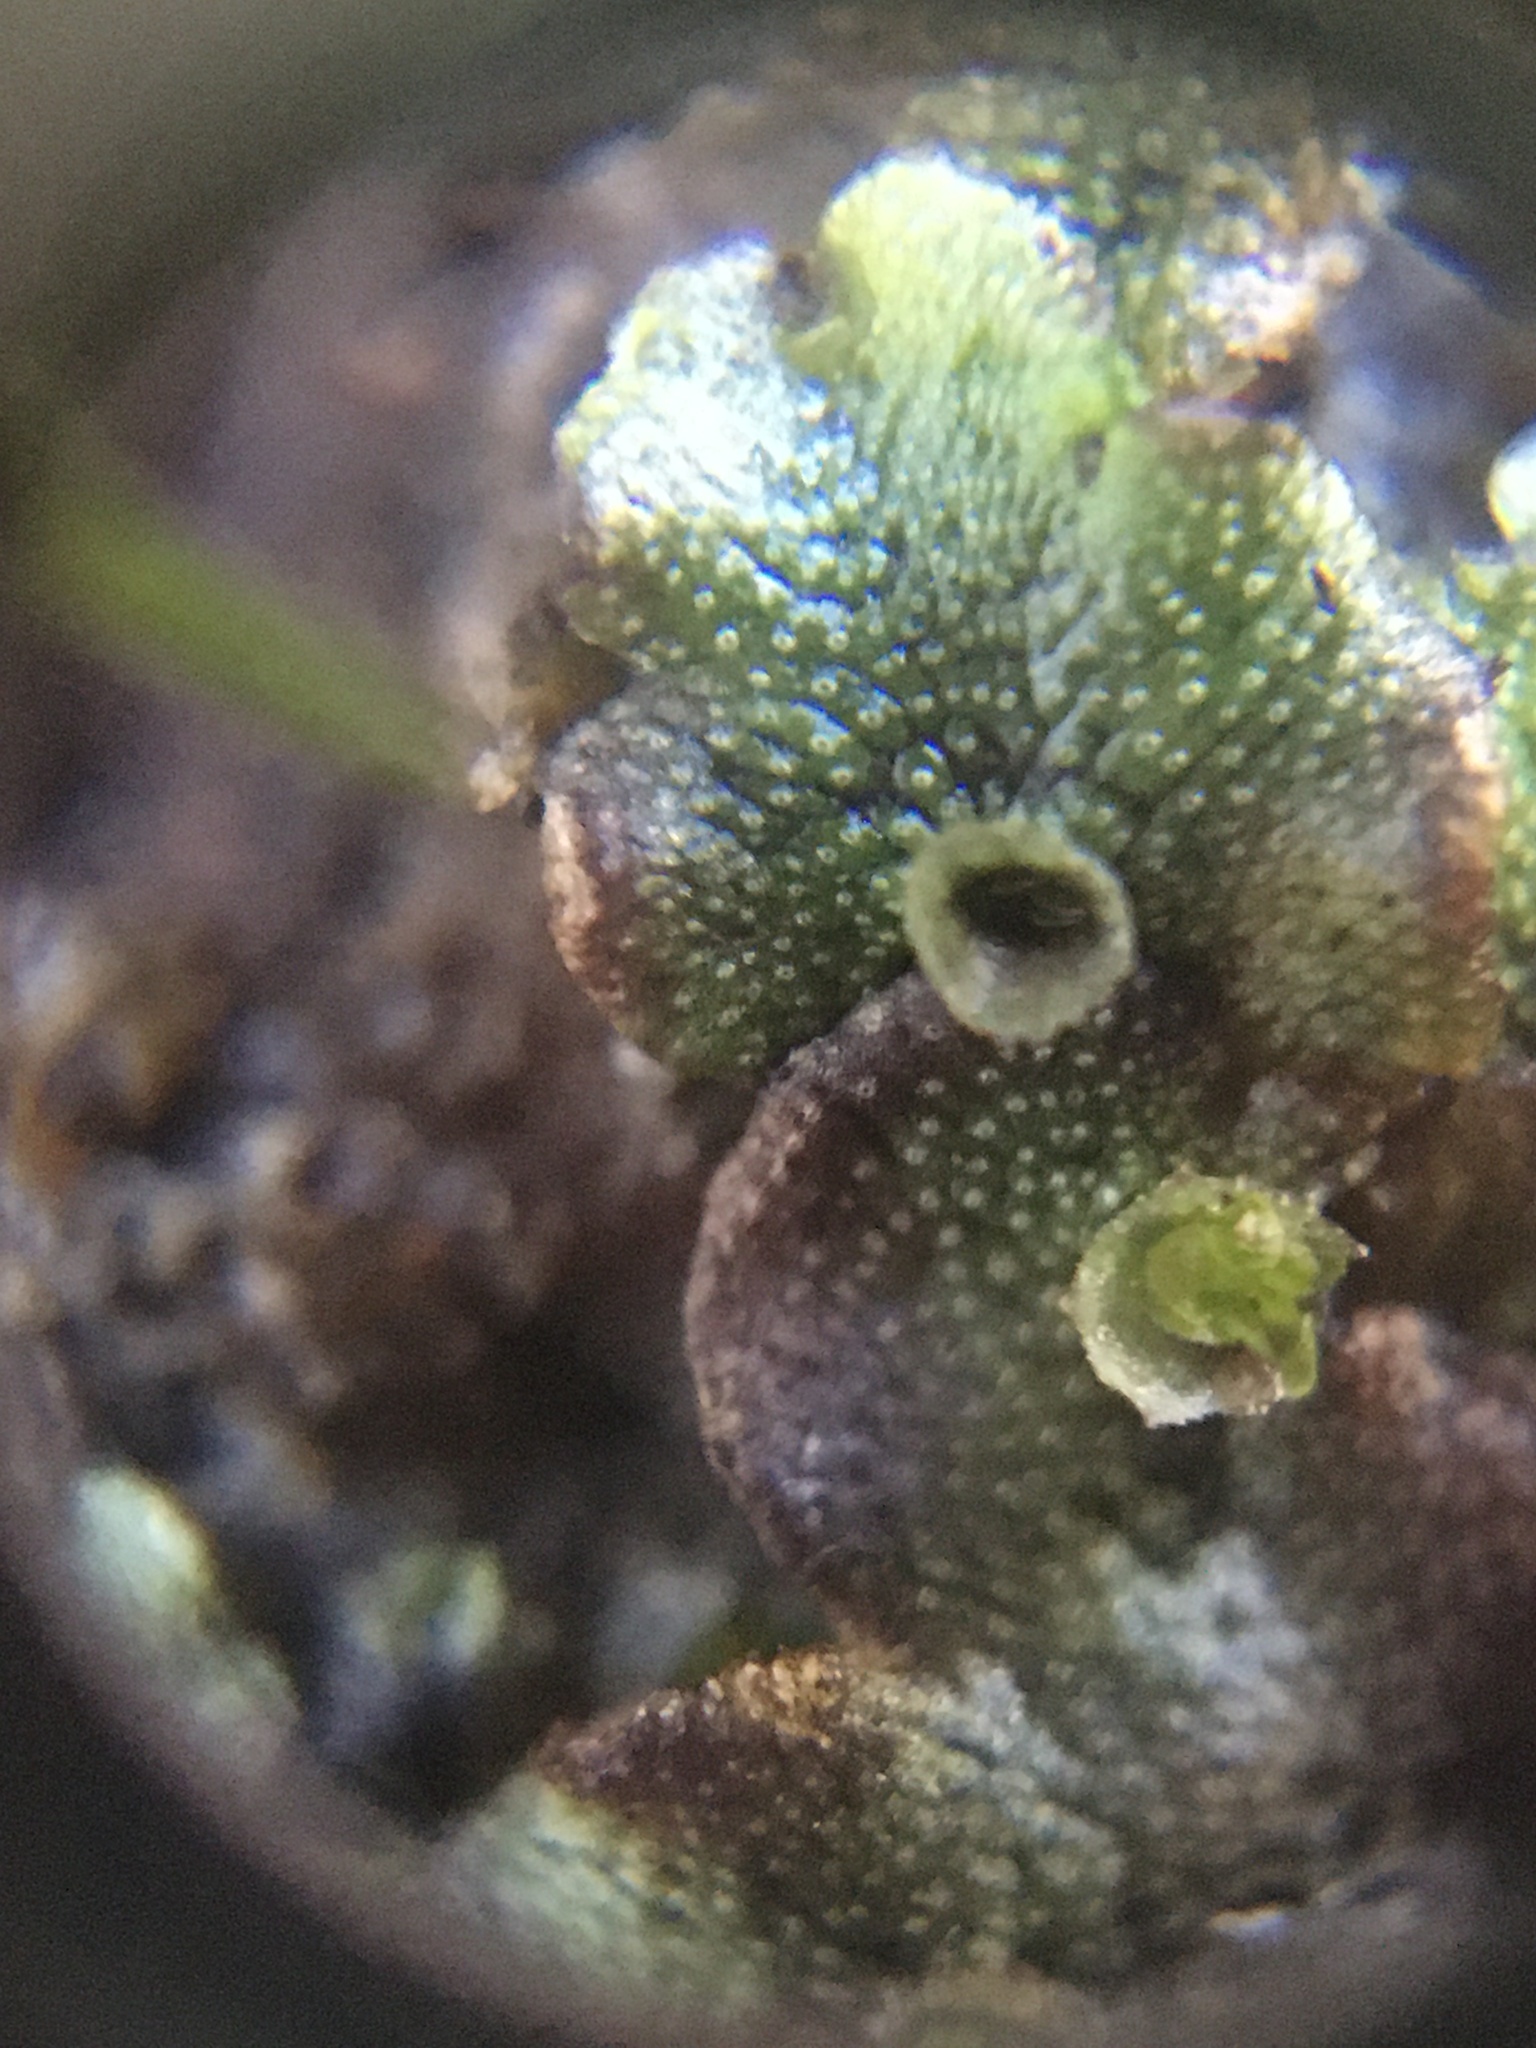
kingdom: Plantae
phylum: Marchantiophyta
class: Marchantiopsida
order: Marchantiales
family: Marchantiaceae
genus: Marchantia
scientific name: Marchantia polymorpha
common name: Common liverwort
